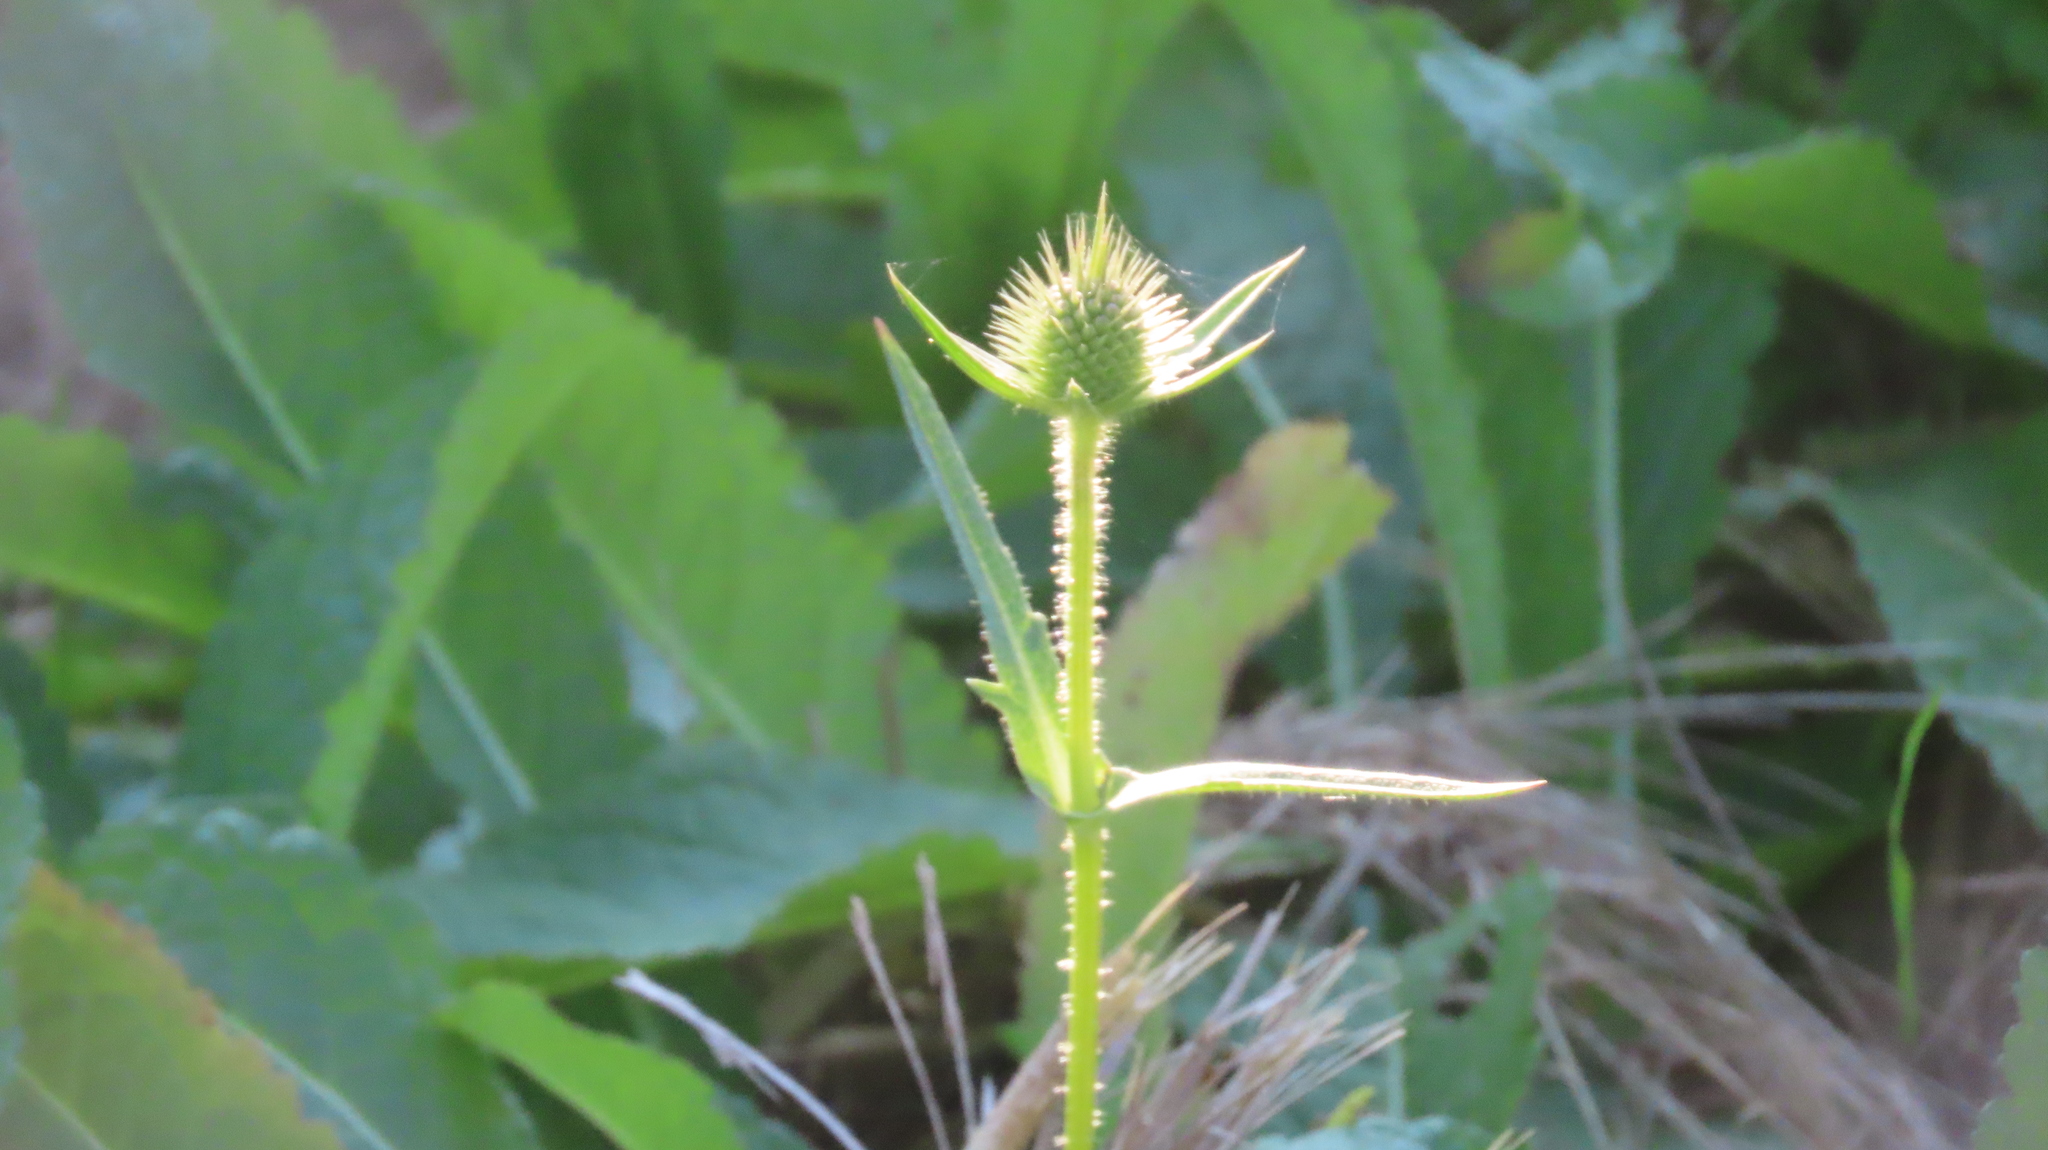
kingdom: Plantae
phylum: Tracheophyta
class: Magnoliopsida
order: Dipsacales
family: Caprifoliaceae
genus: Dipsacus
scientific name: Dipsacus laciniatus
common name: Cut-leaved teasel
